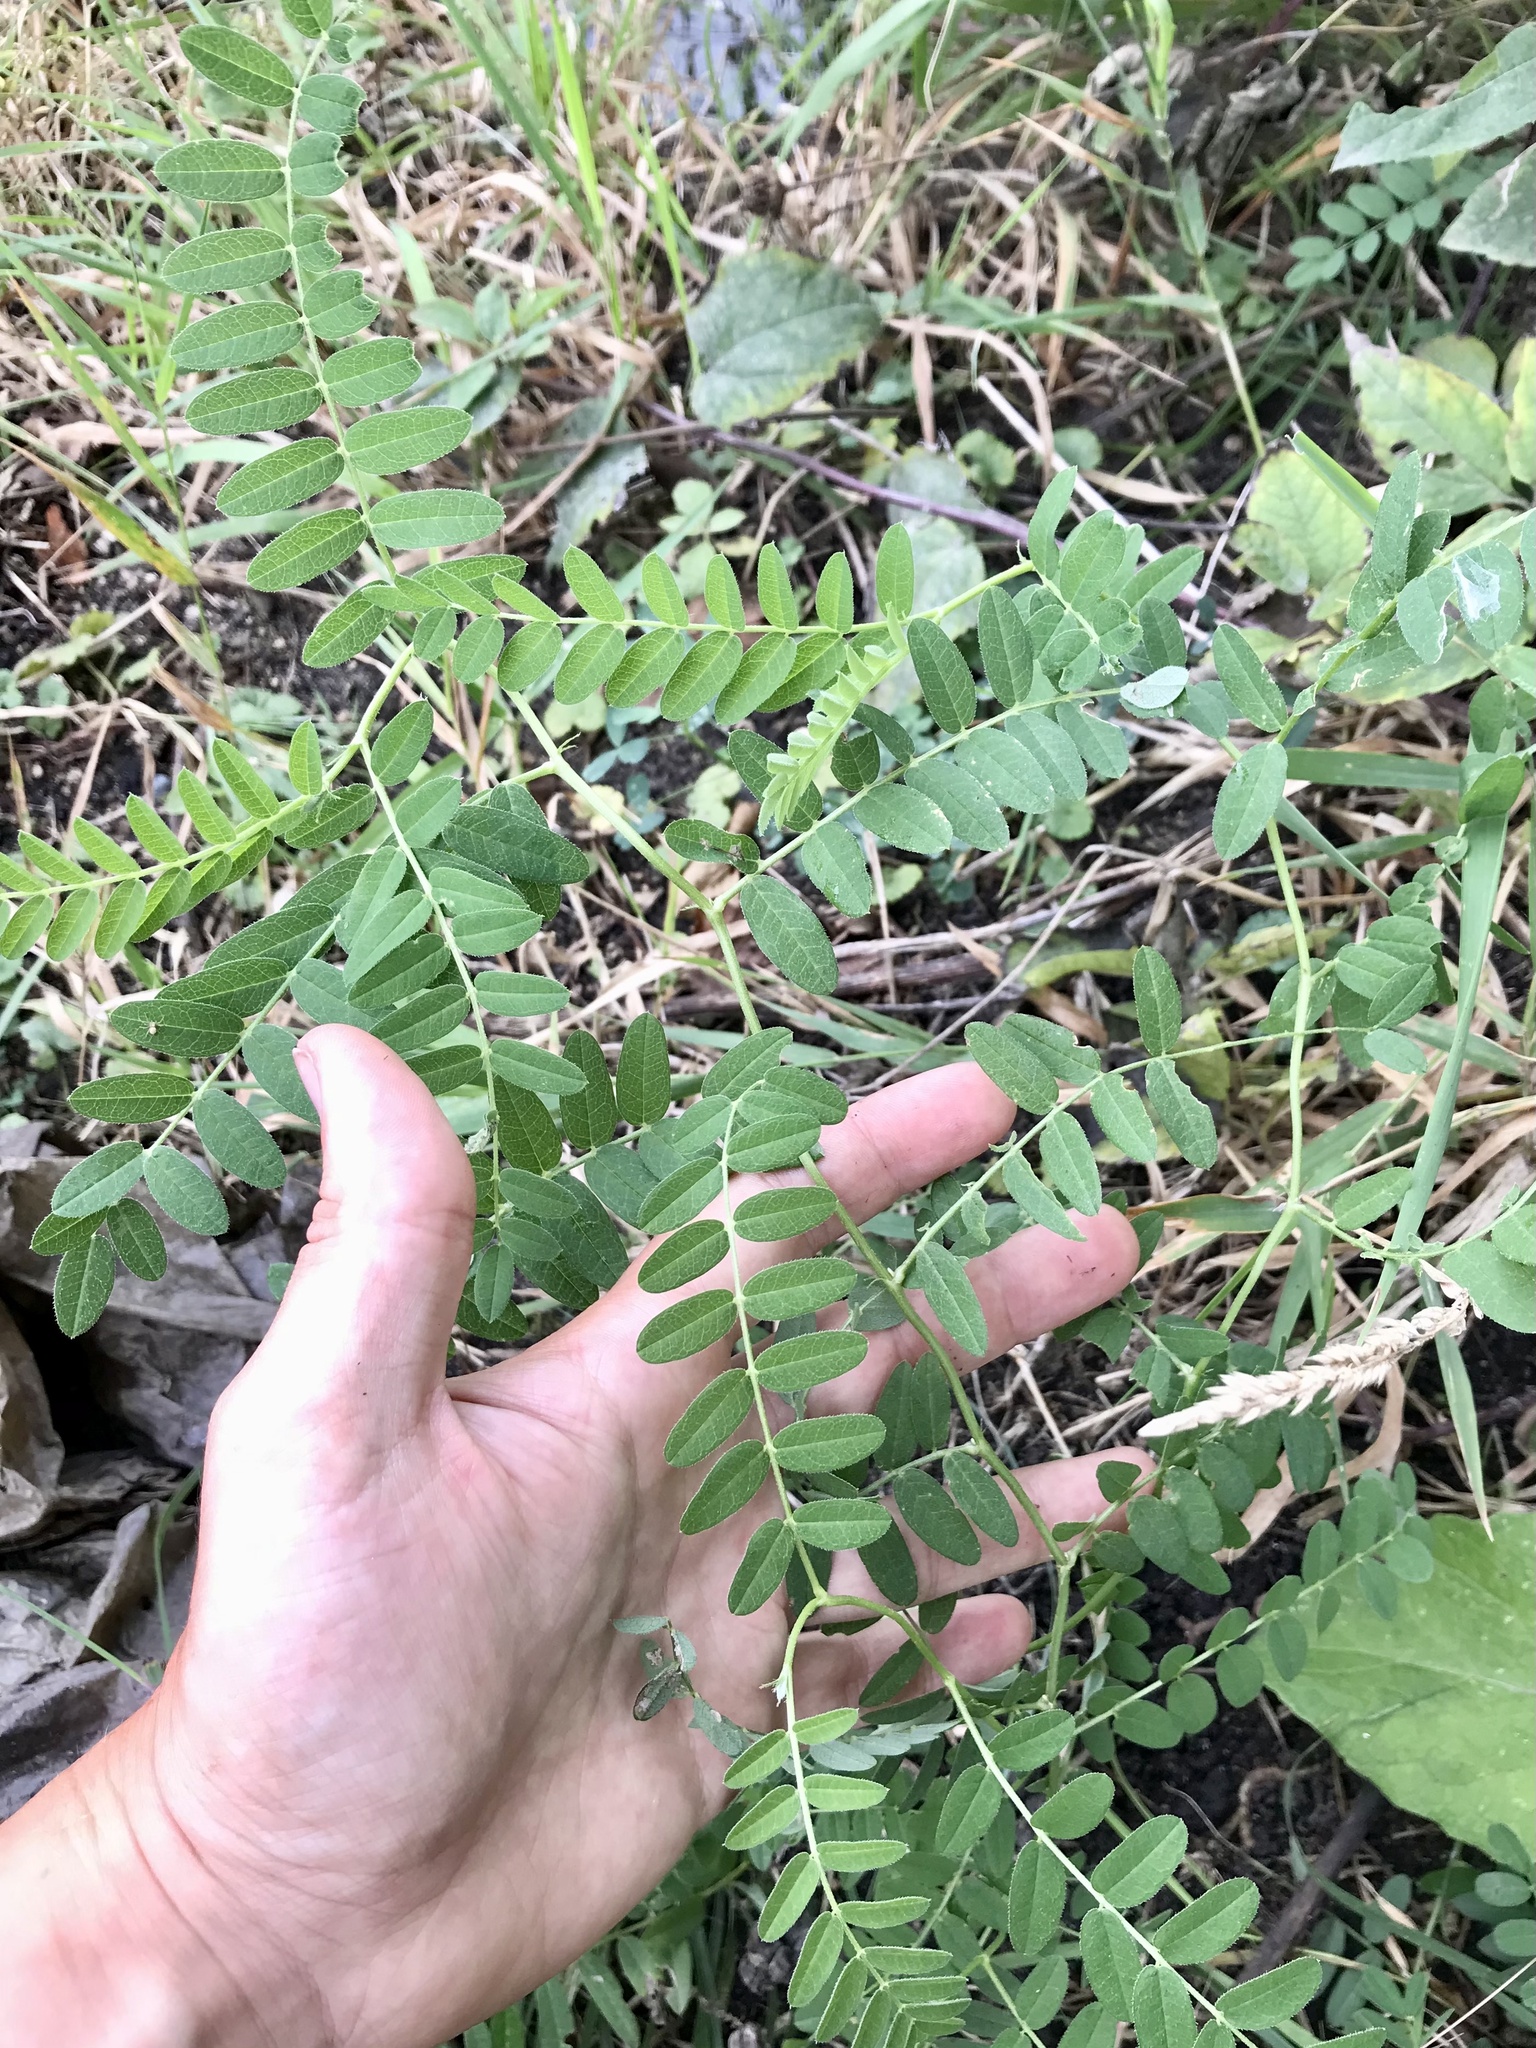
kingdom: Plantae
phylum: Tracheophyta
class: Magnoliopsida
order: Fabales
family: Fabaceae
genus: Astragalus
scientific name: Astragalus cicer
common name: Chick-pea milk-vetch
